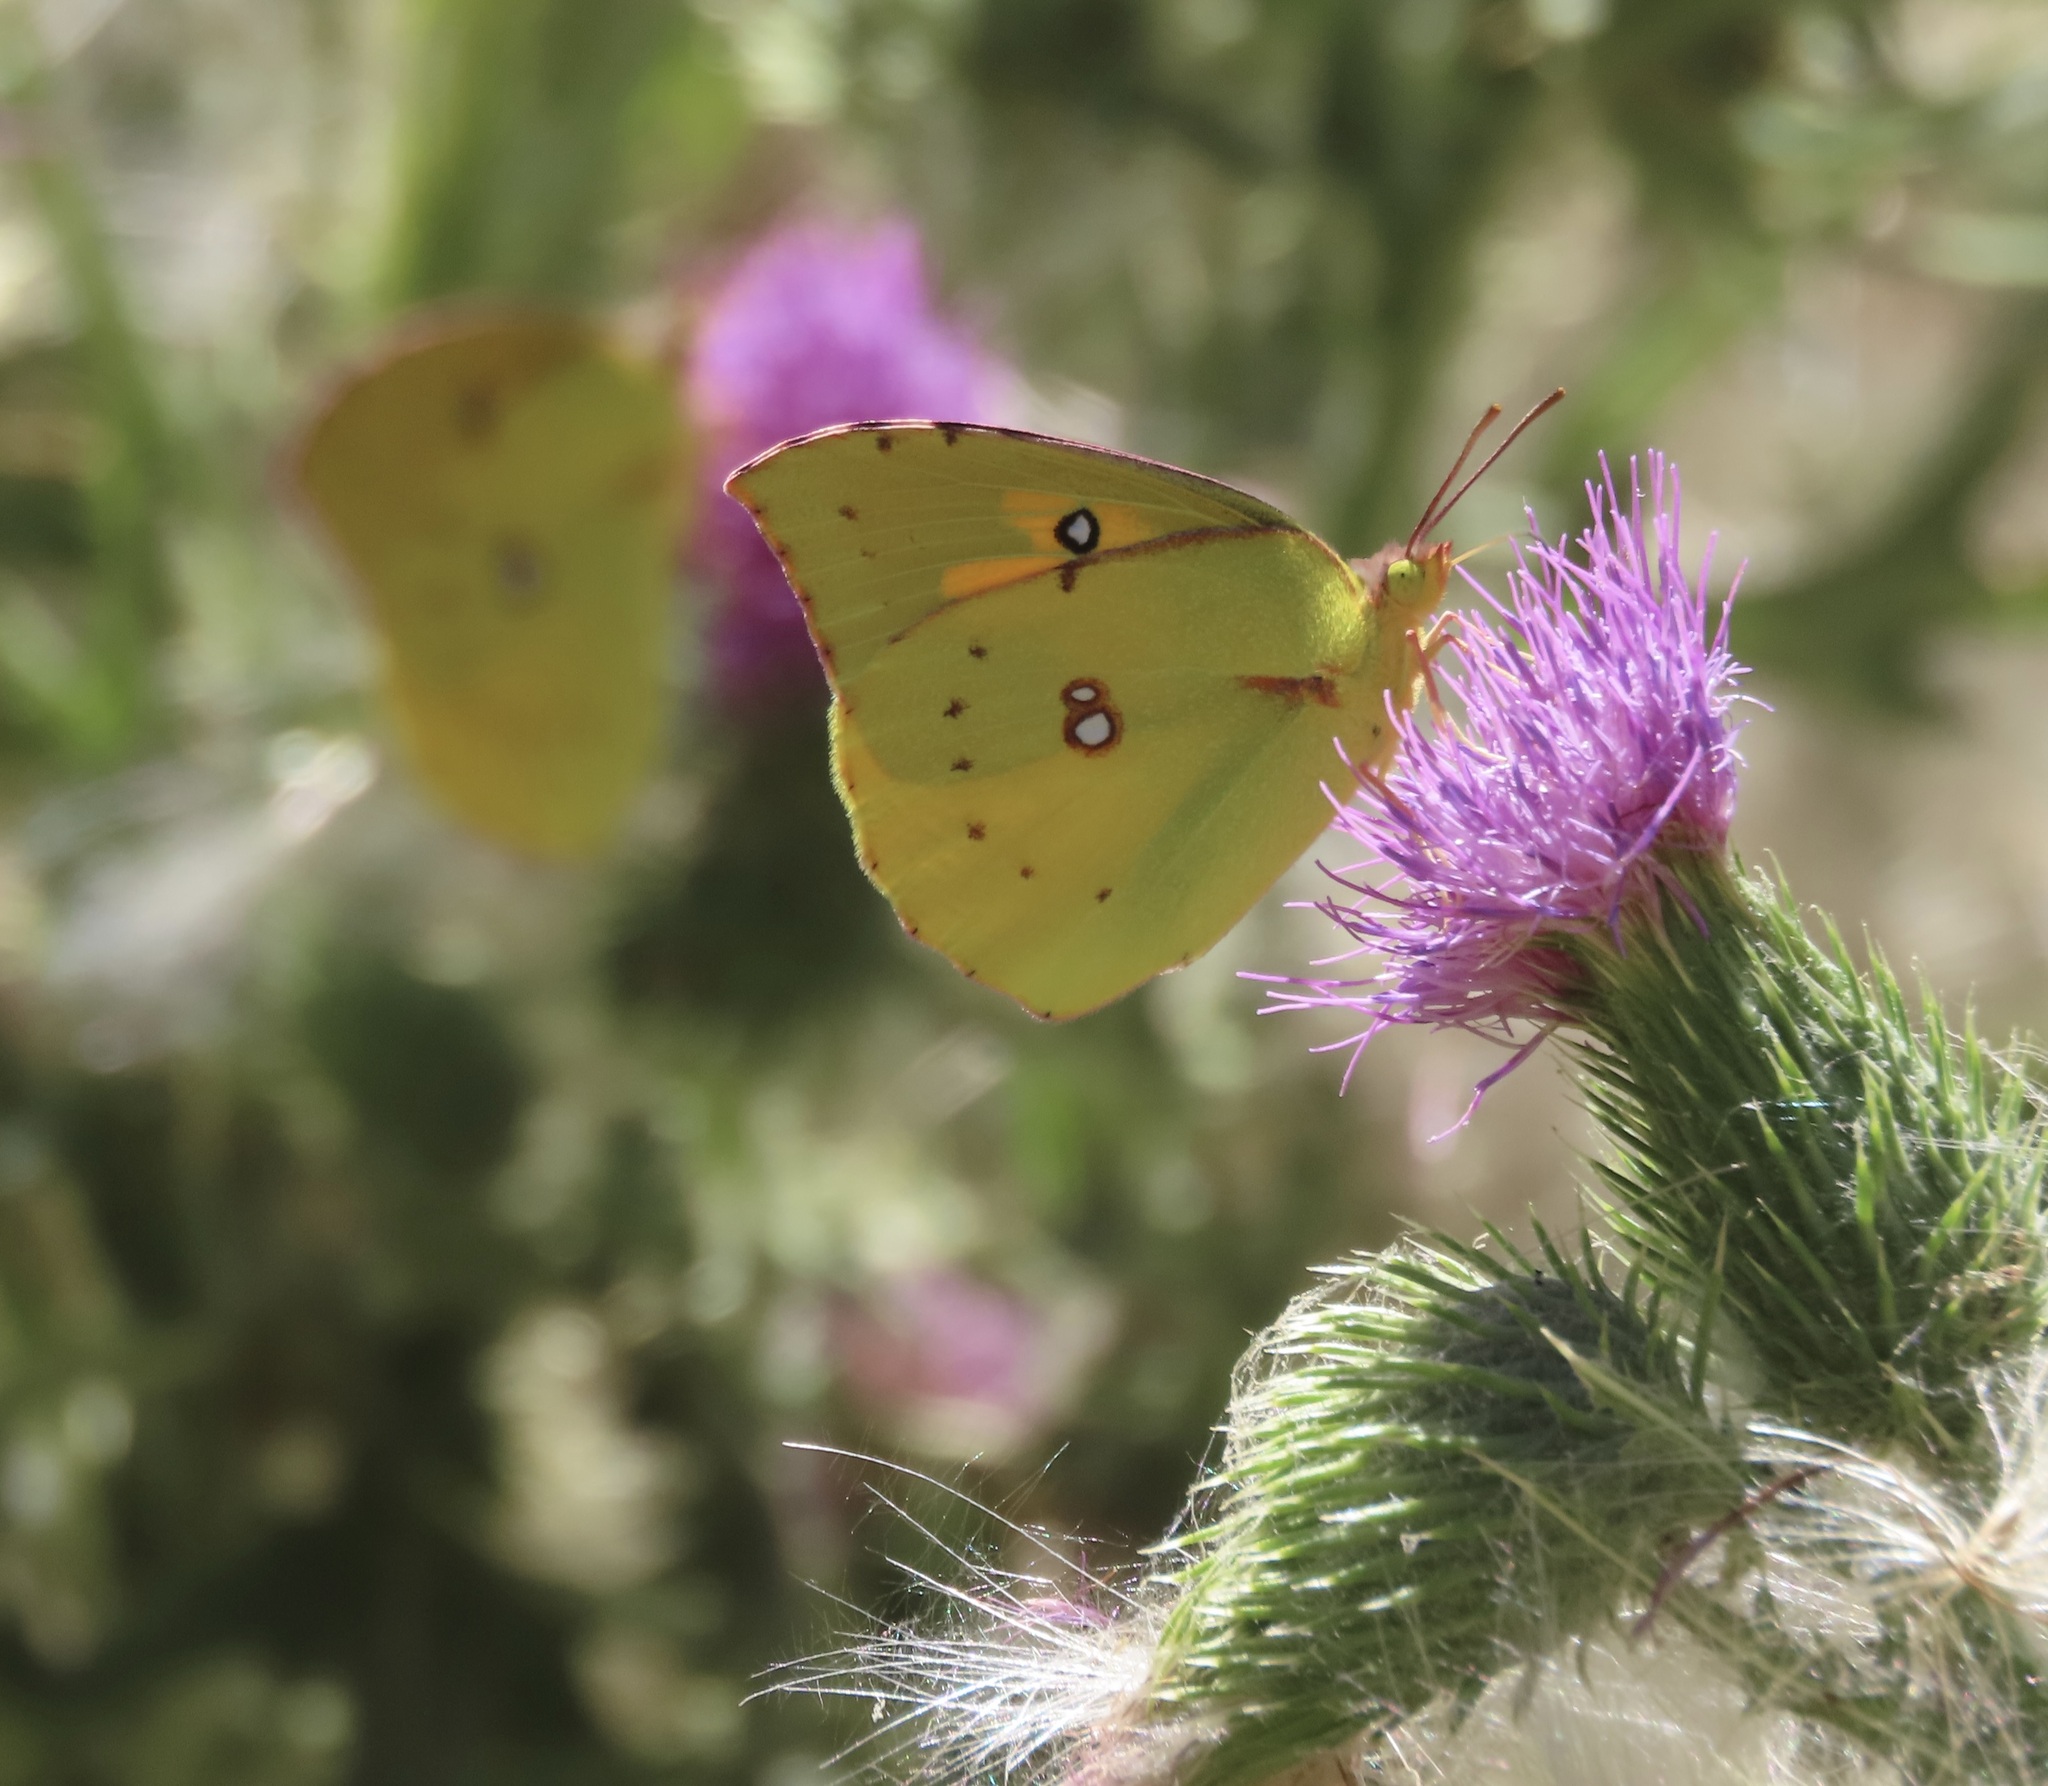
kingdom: Animalia
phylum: Arthropoda
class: Insecta
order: Lepidoptera
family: Pieridae
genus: Zerene
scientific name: Zerene eurydice
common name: California dogface
